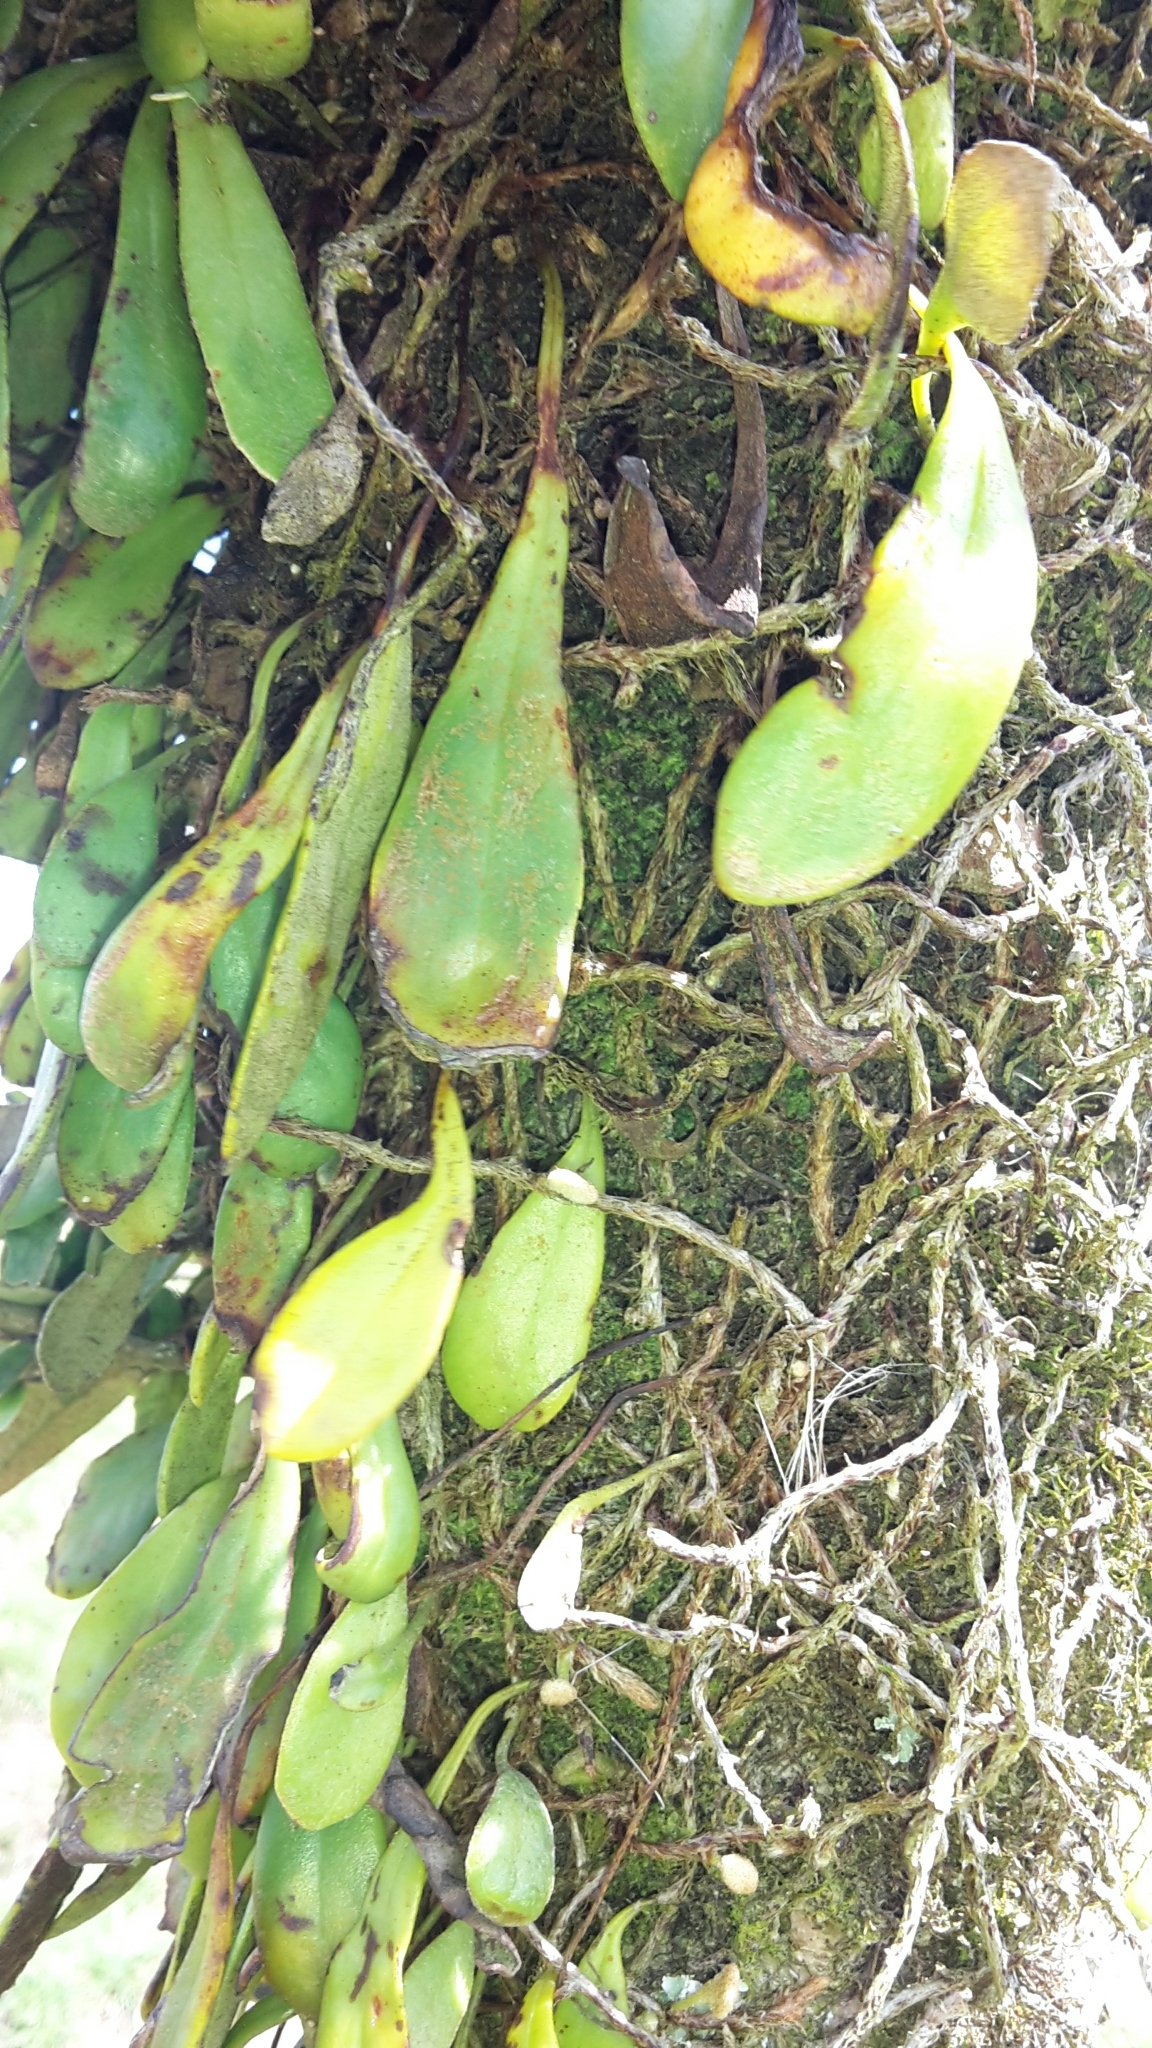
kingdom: Plantae
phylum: Tracheophyta
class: Polypodiopsida
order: Polypodiales
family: Polypodiaceae
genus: Pyrrosia
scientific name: Pyrrosia eleagnifolia
